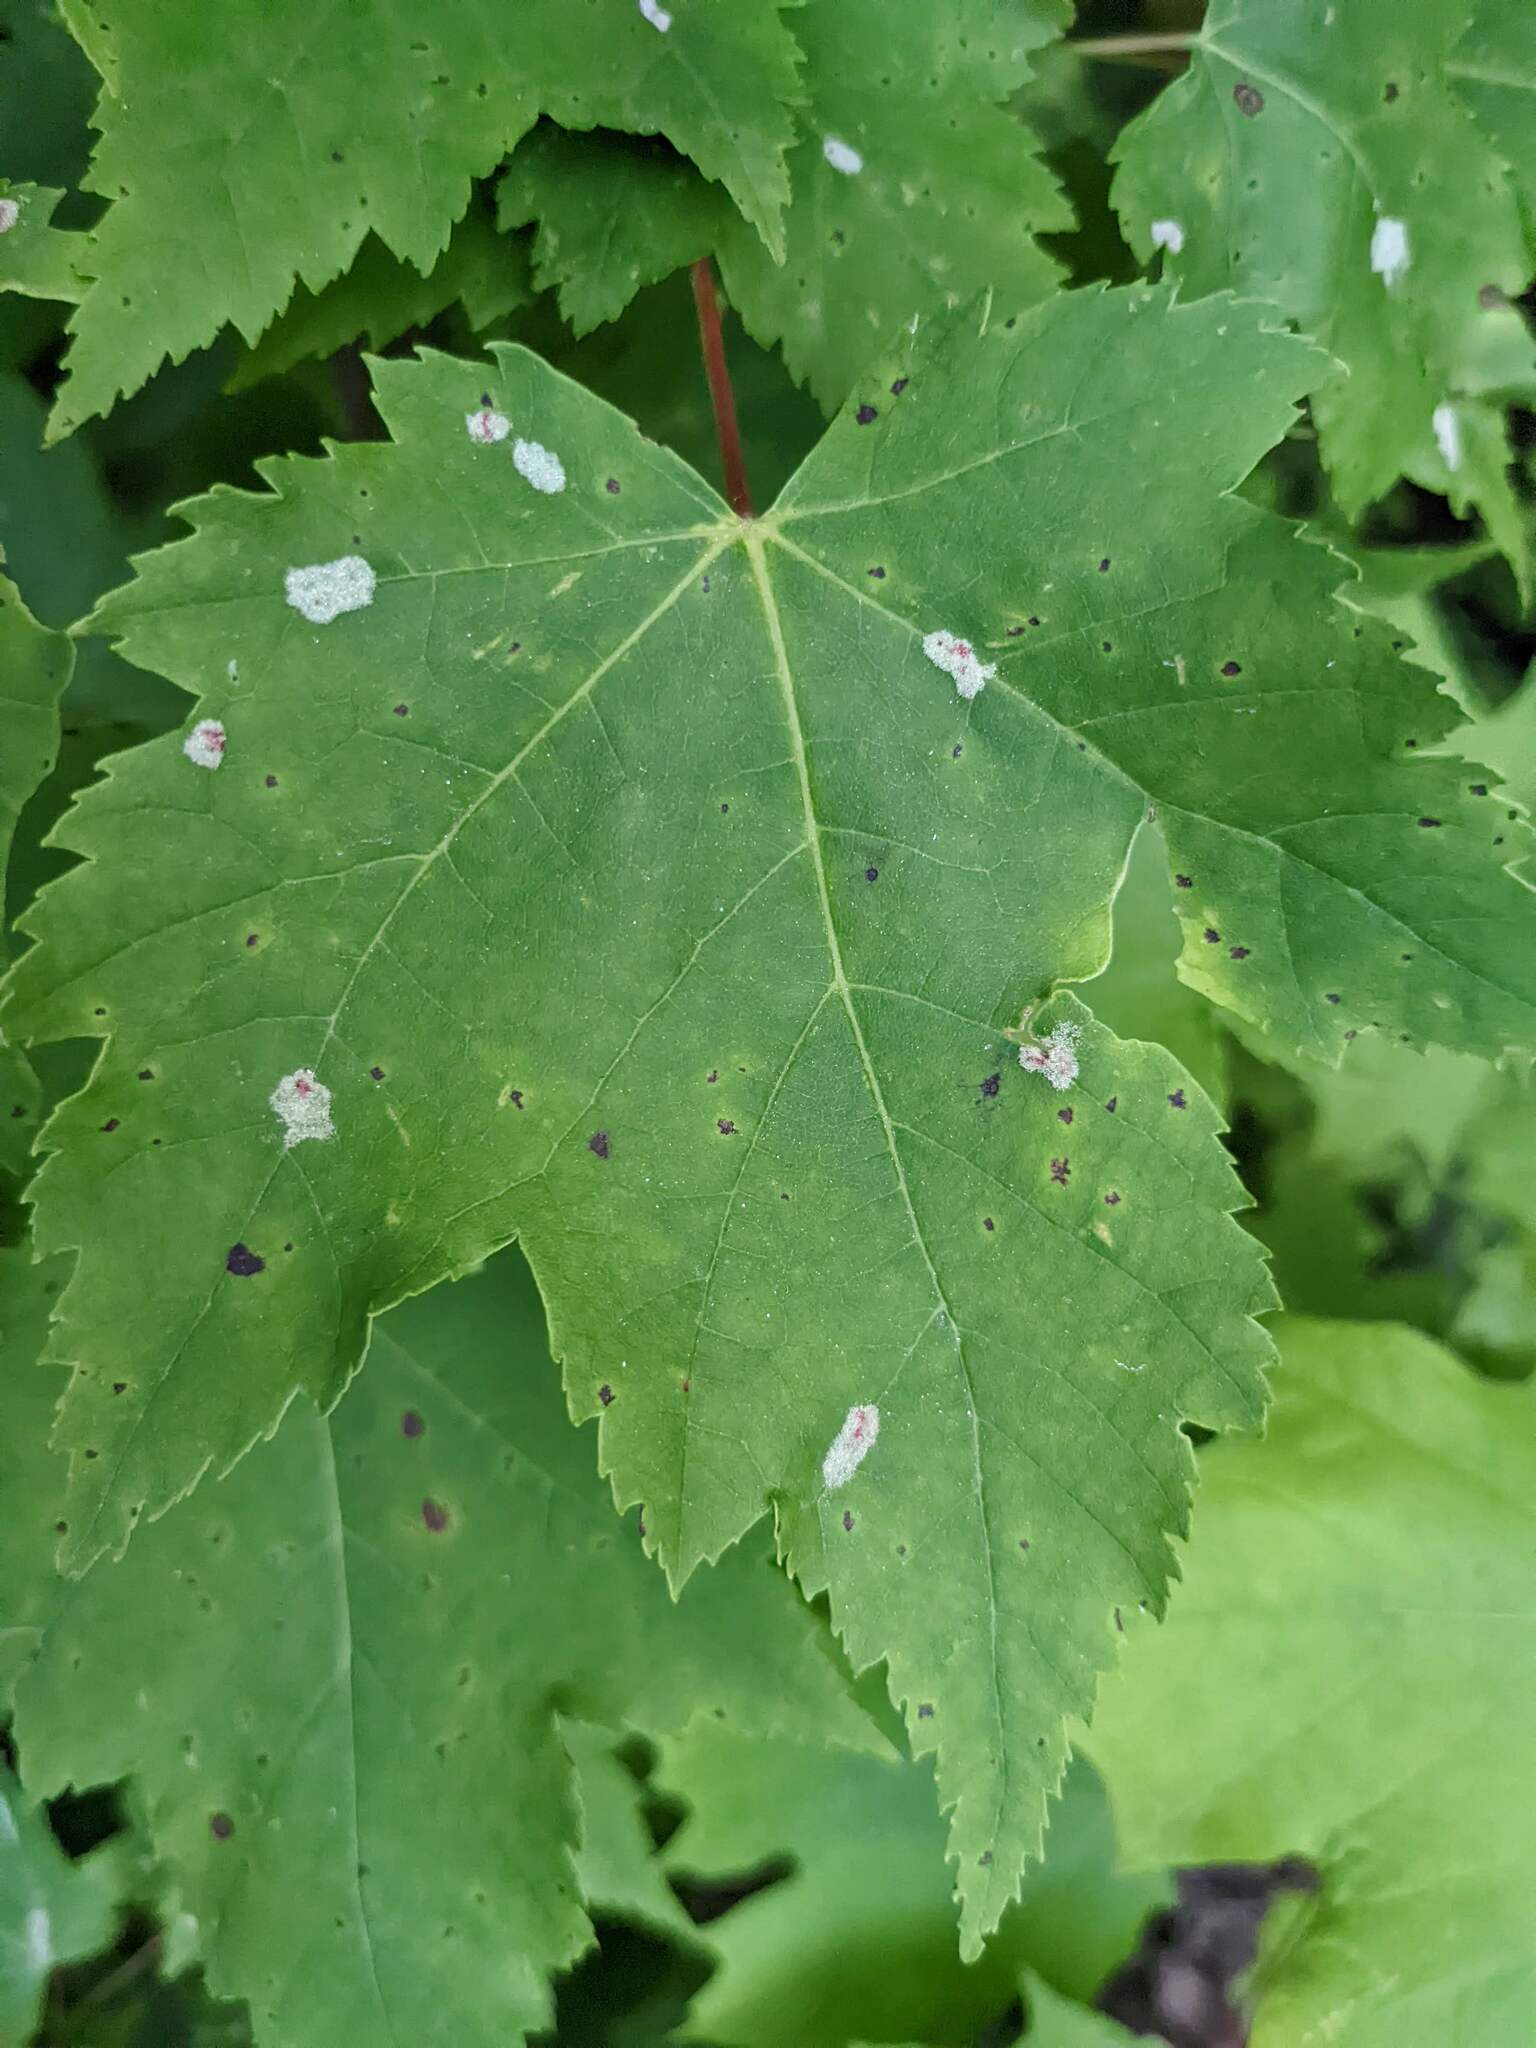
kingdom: Animalia
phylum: Arthropoda
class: Arachnida
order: Trombidiformes
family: Eriophyidae
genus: Aculus
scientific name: Aculus
